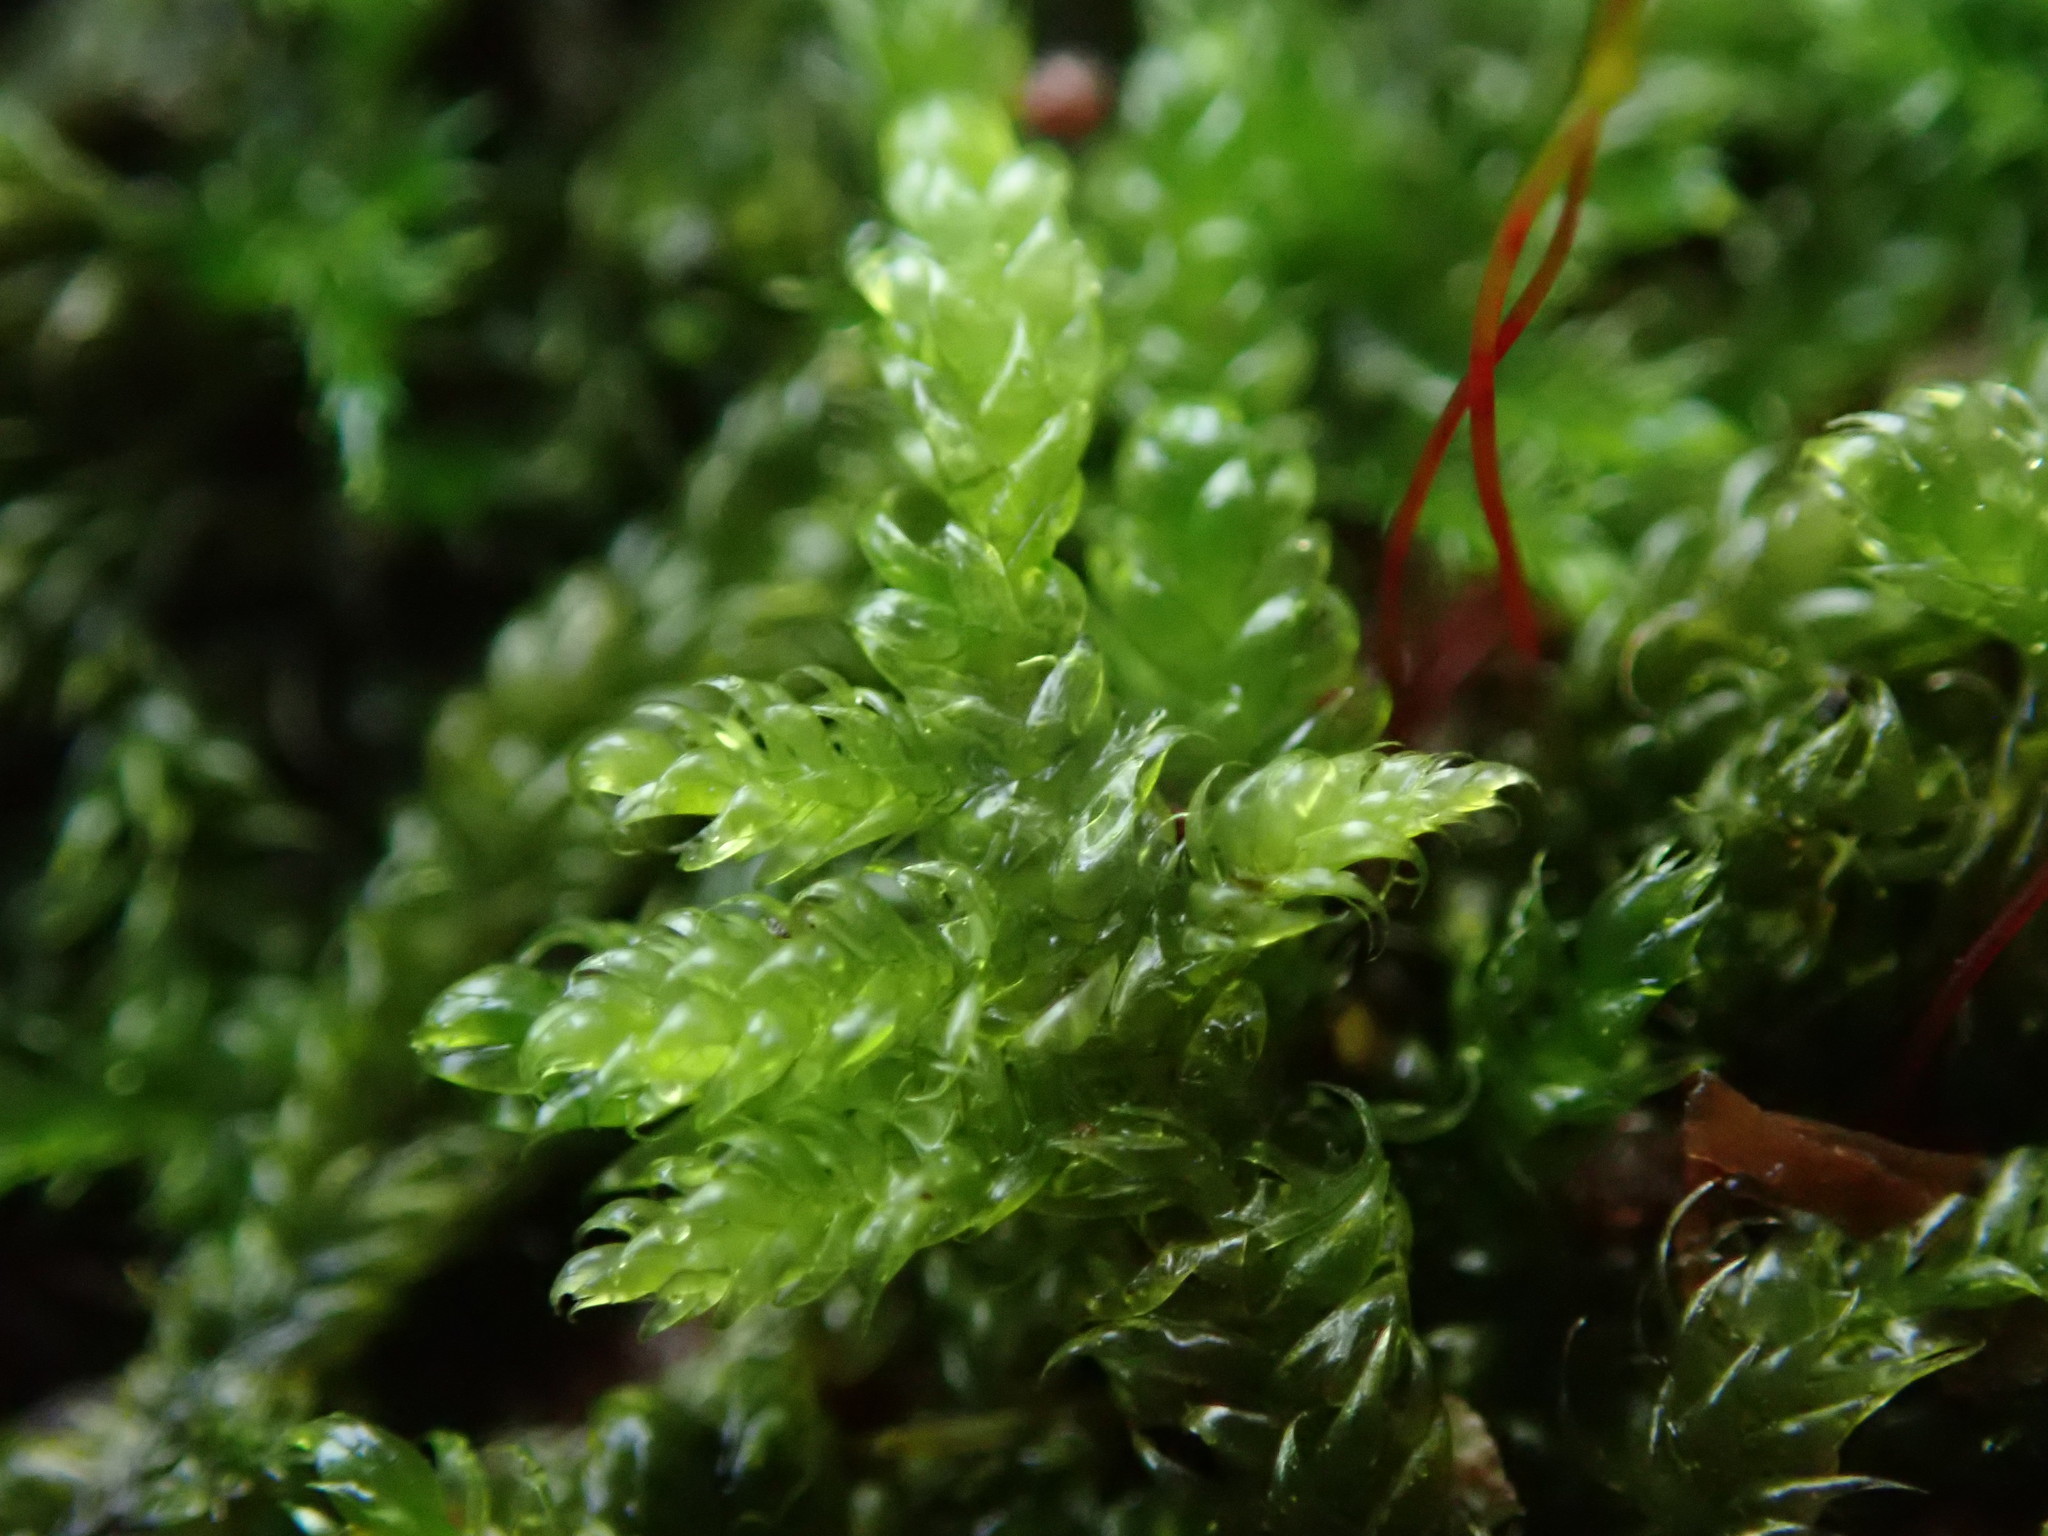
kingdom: Plantae
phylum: Bryophyta
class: Bryopsida
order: Hypnales
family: Hypnaceae
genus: Hypnum
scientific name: Hypnum cupressiforme
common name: Cypress-leaved plait-moss
